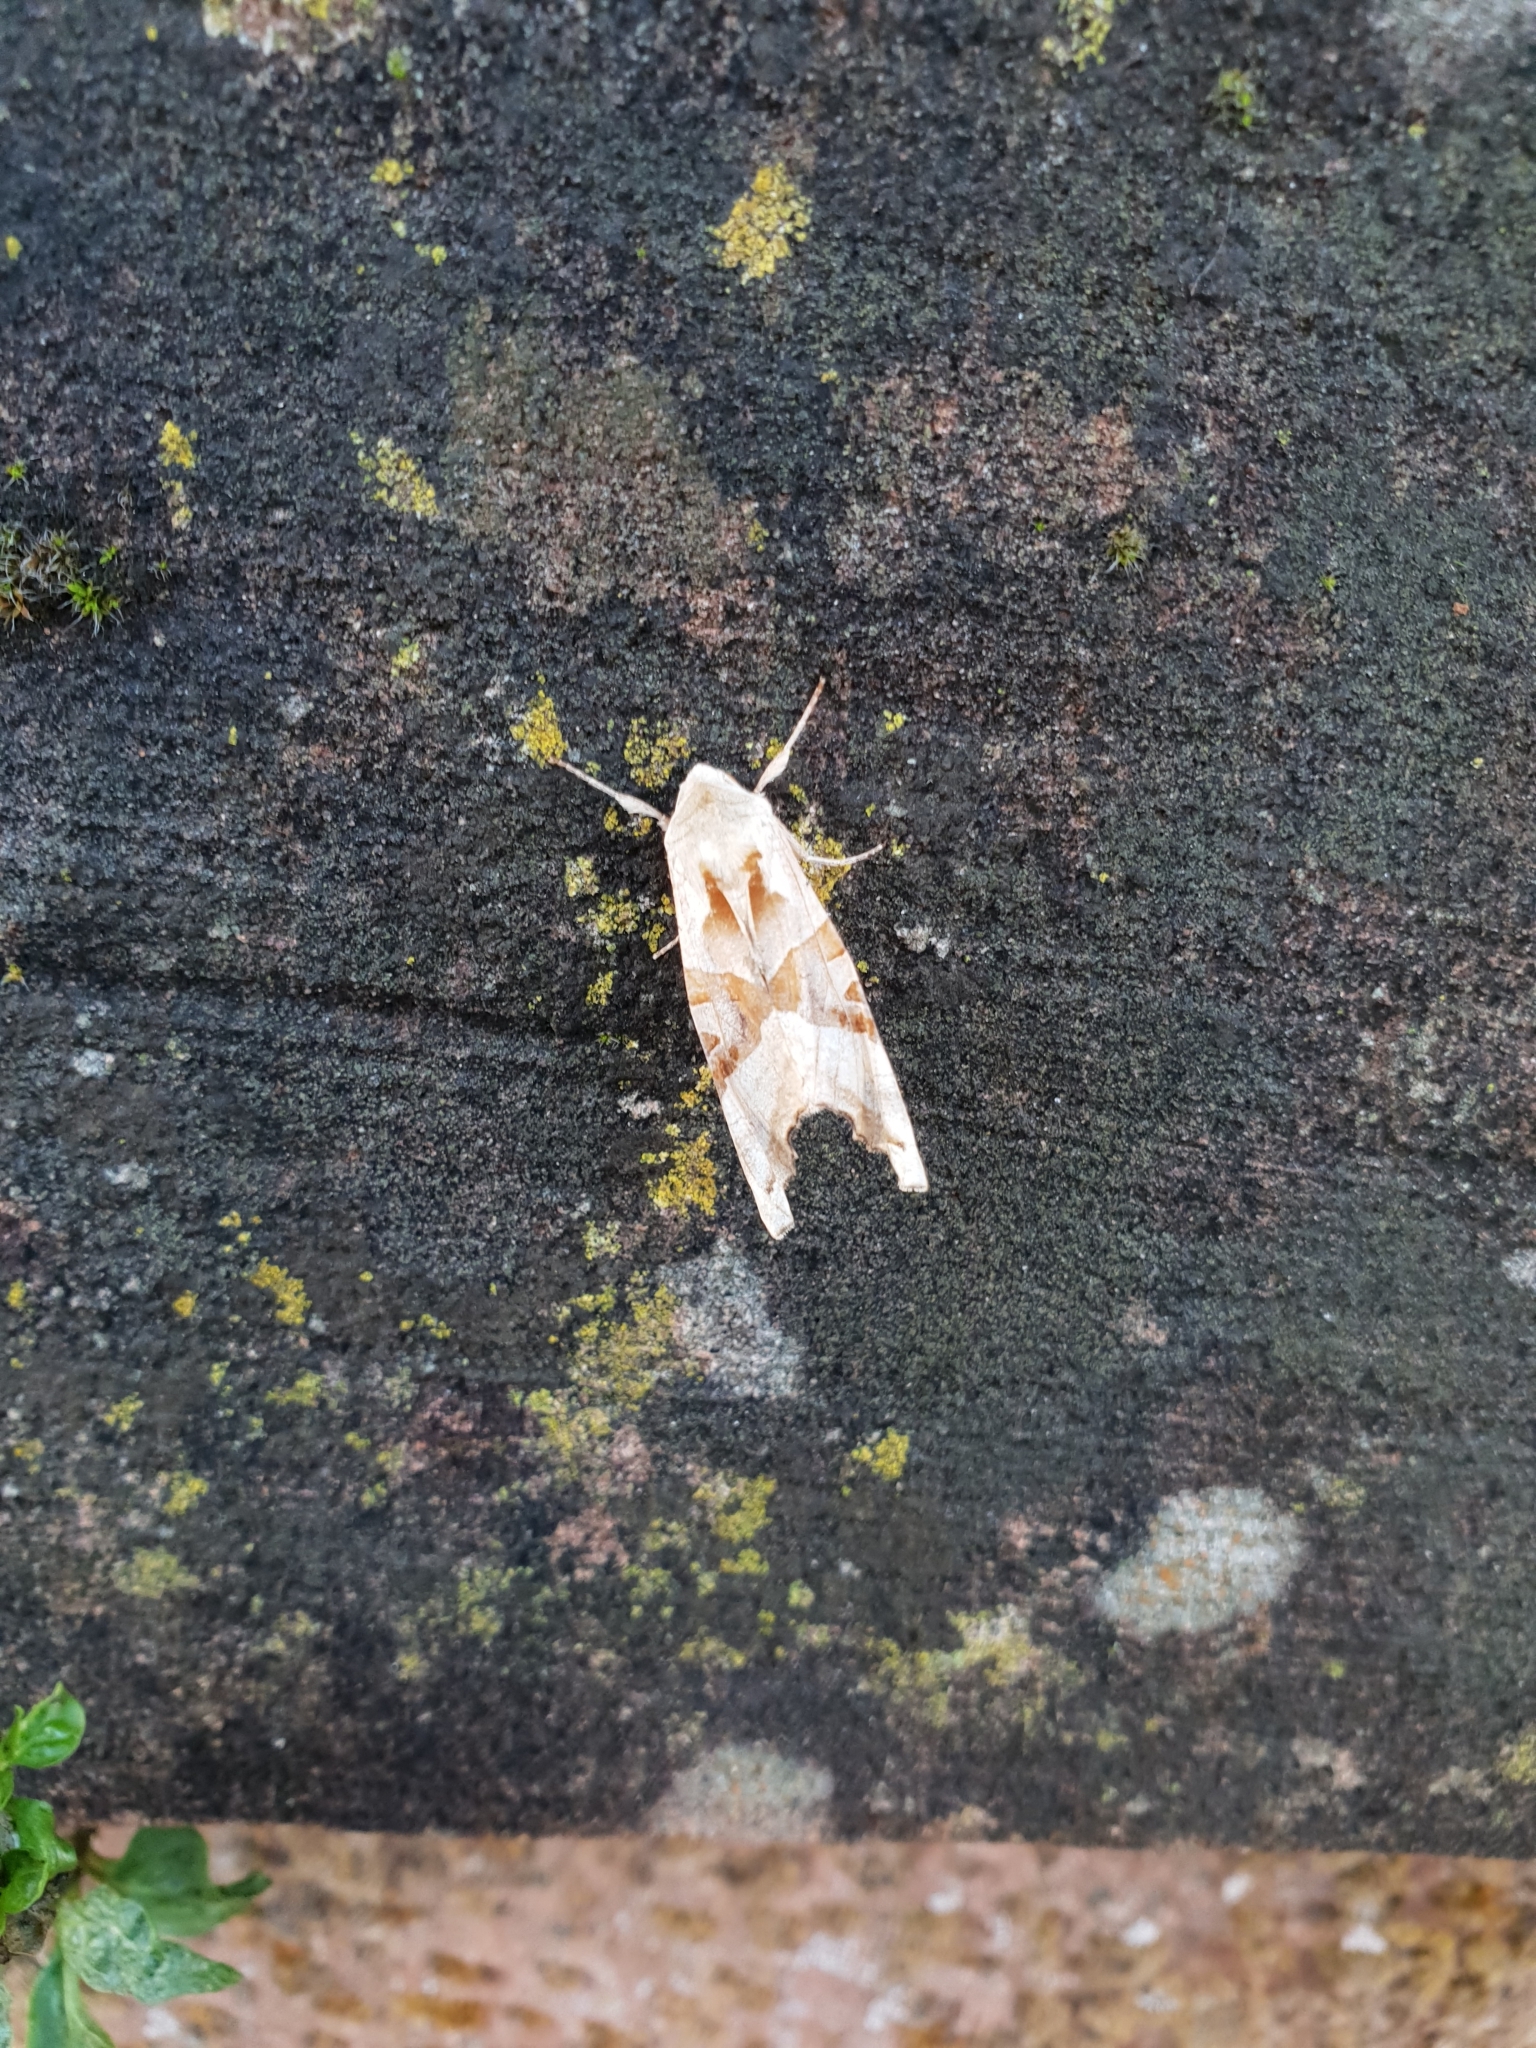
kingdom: Animalia
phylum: Arthropoda
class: Insecta
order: Lepidoptera
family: Noctuidae
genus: Phlogophora
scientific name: Phlogophora meticulosa
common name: Angle shades
